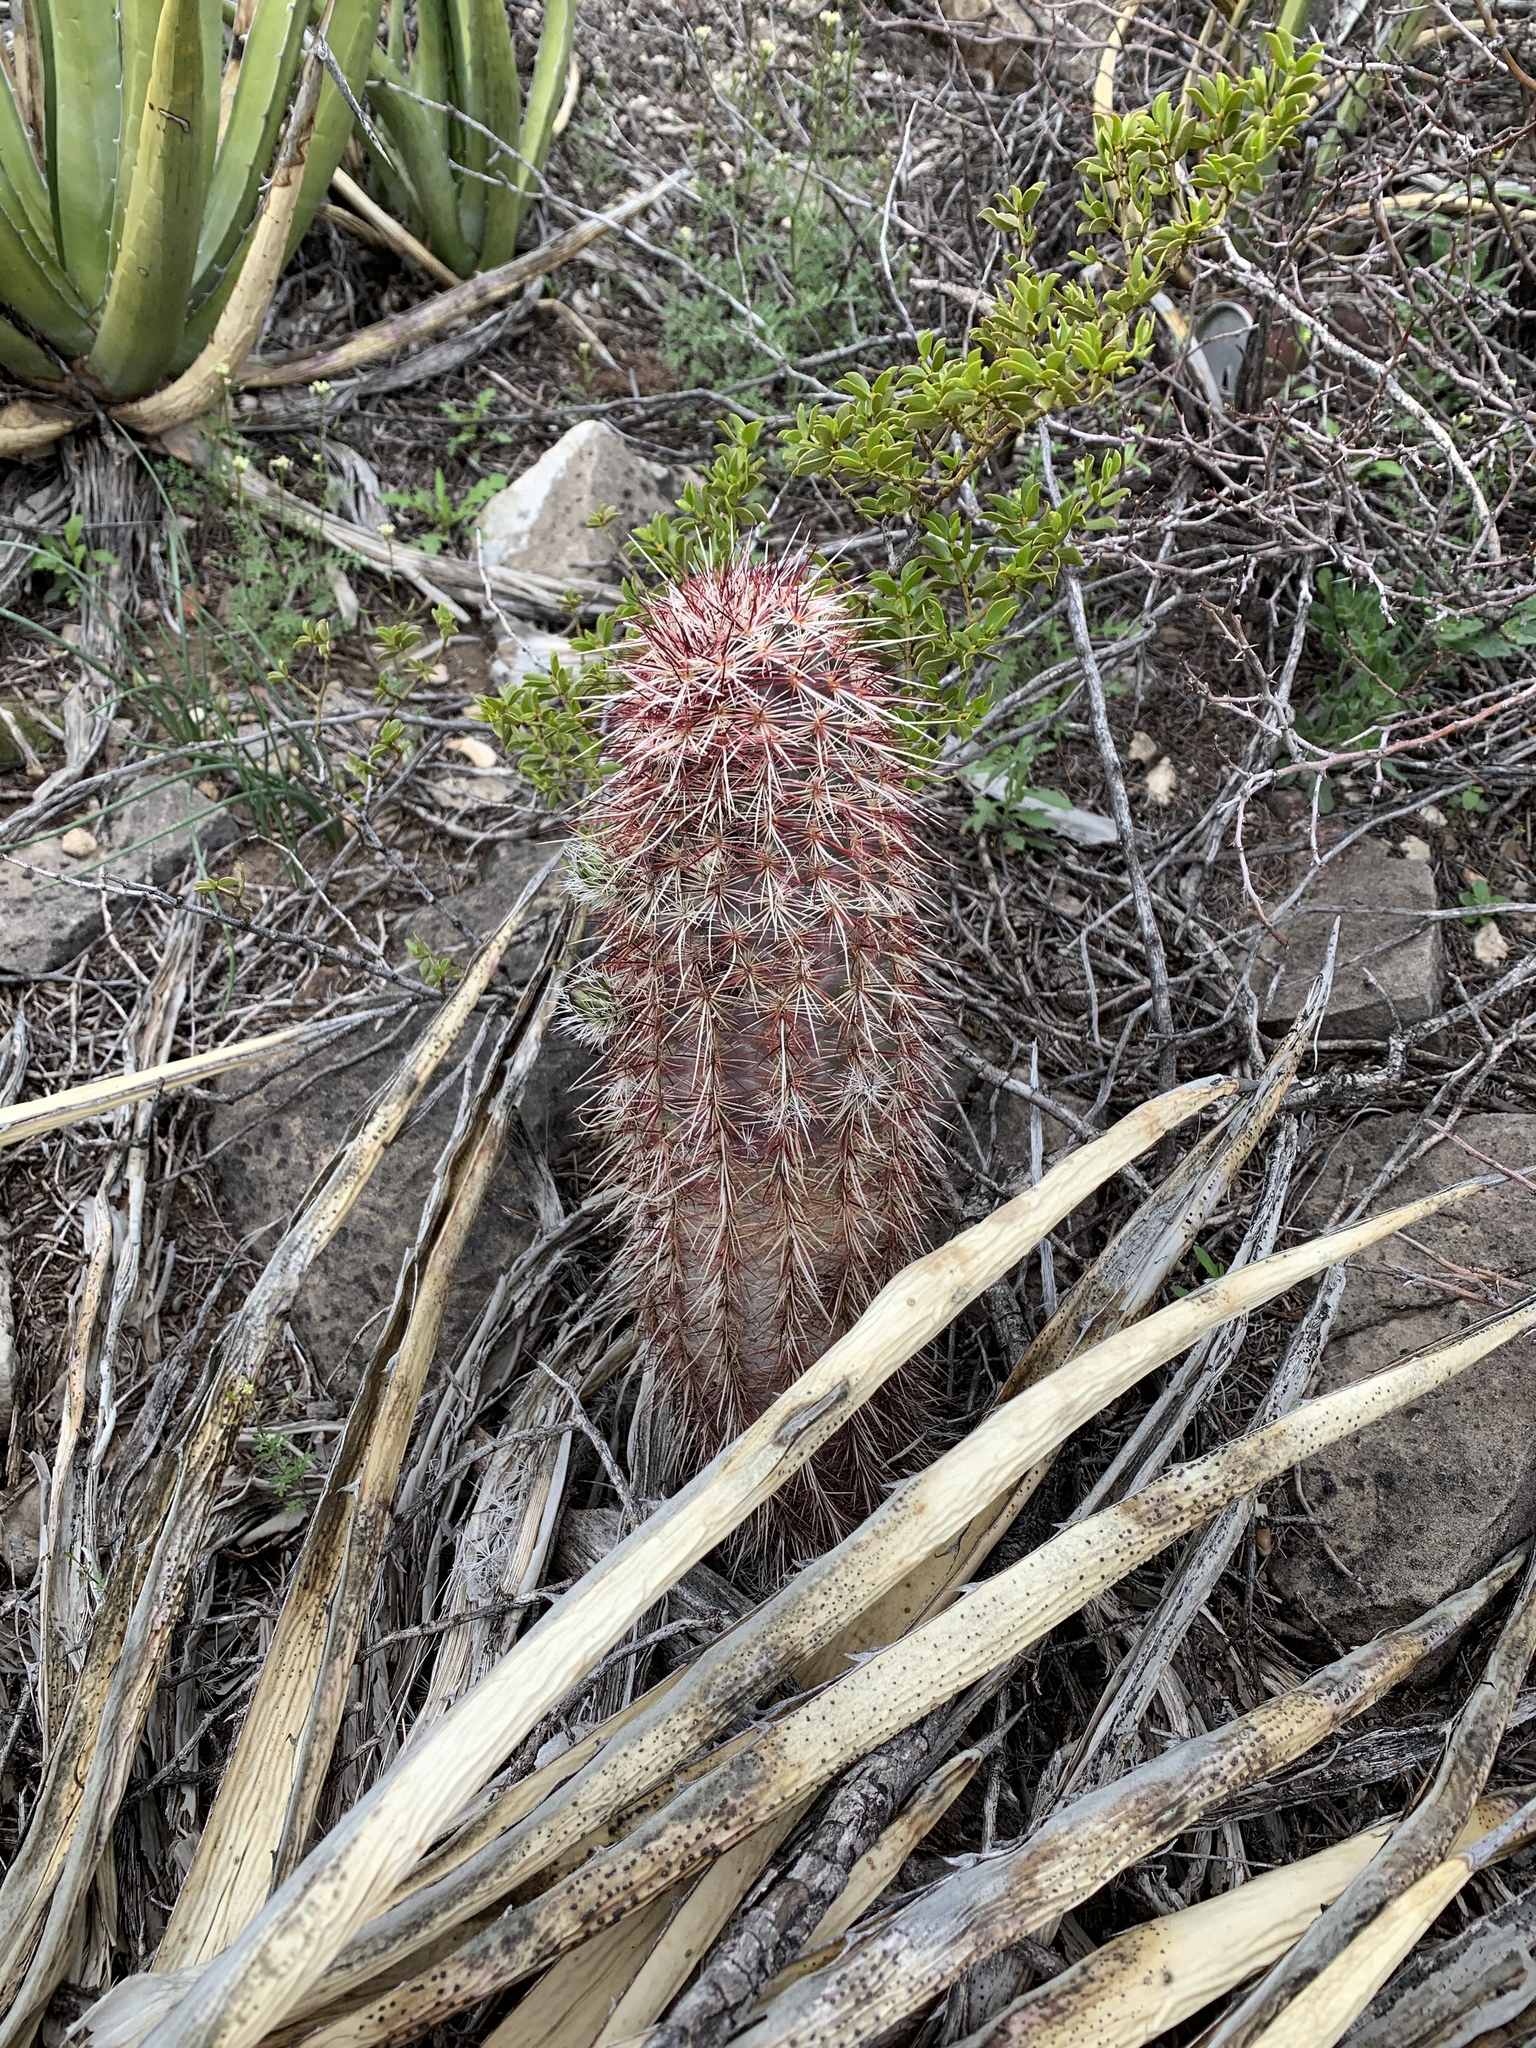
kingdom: Plantae
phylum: Tracheophyta
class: Magnoliopsida
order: Caryophyllales
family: Cactaceae
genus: Echinocereus
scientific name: Echinocereus viridiflorus
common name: Nylon hedgehog cactus
